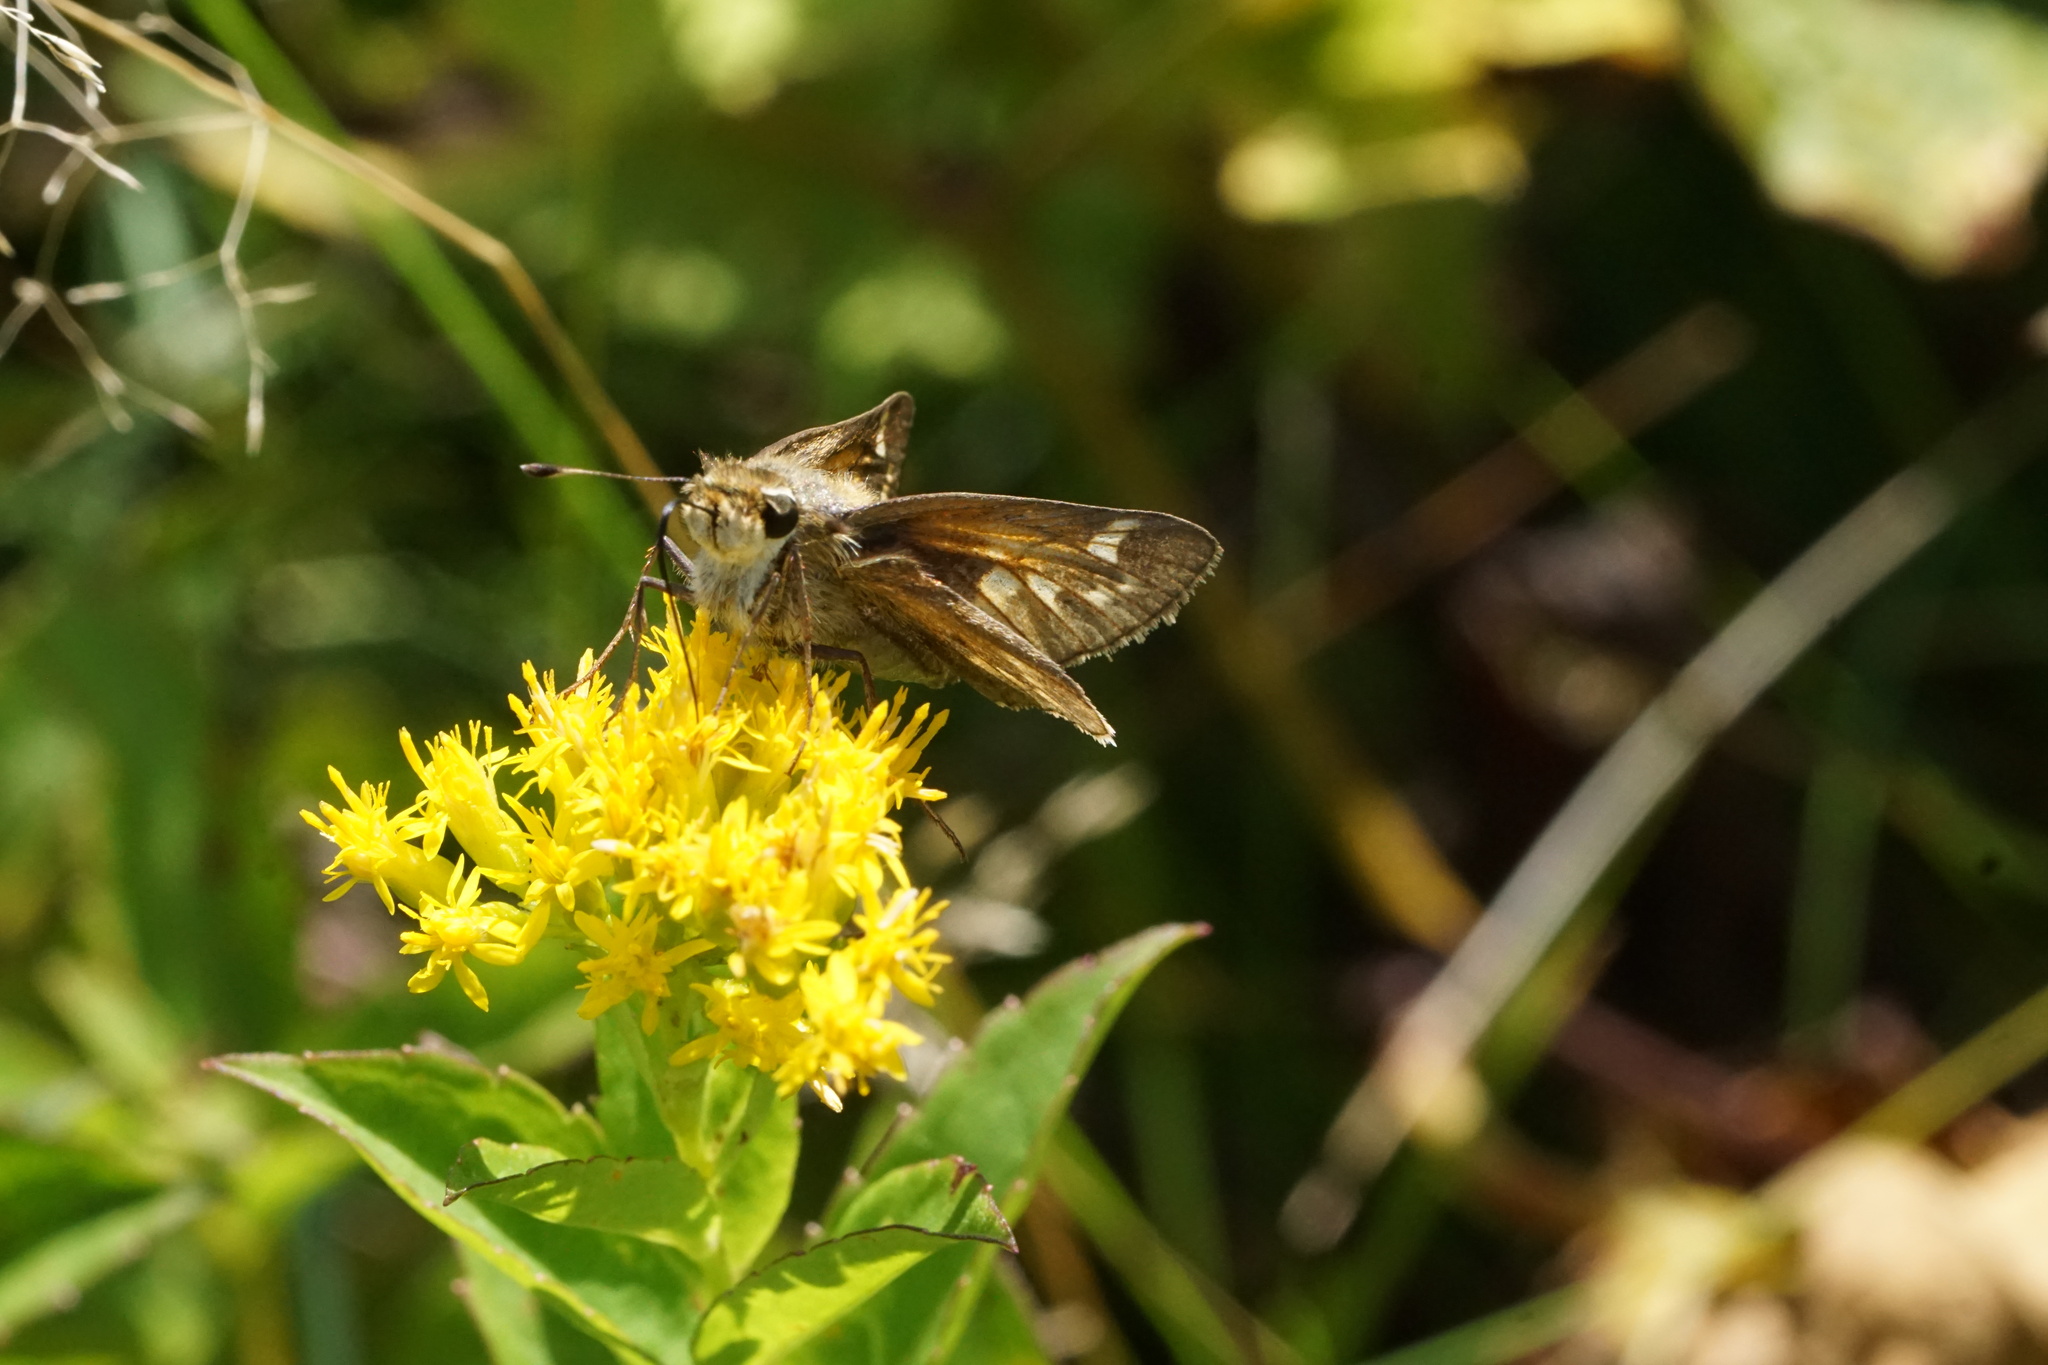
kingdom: Animalia
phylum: Arthropoda
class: Insecta
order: Lepidoptera
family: Hesperiidae
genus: Atalopedes
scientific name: Atalopedes
